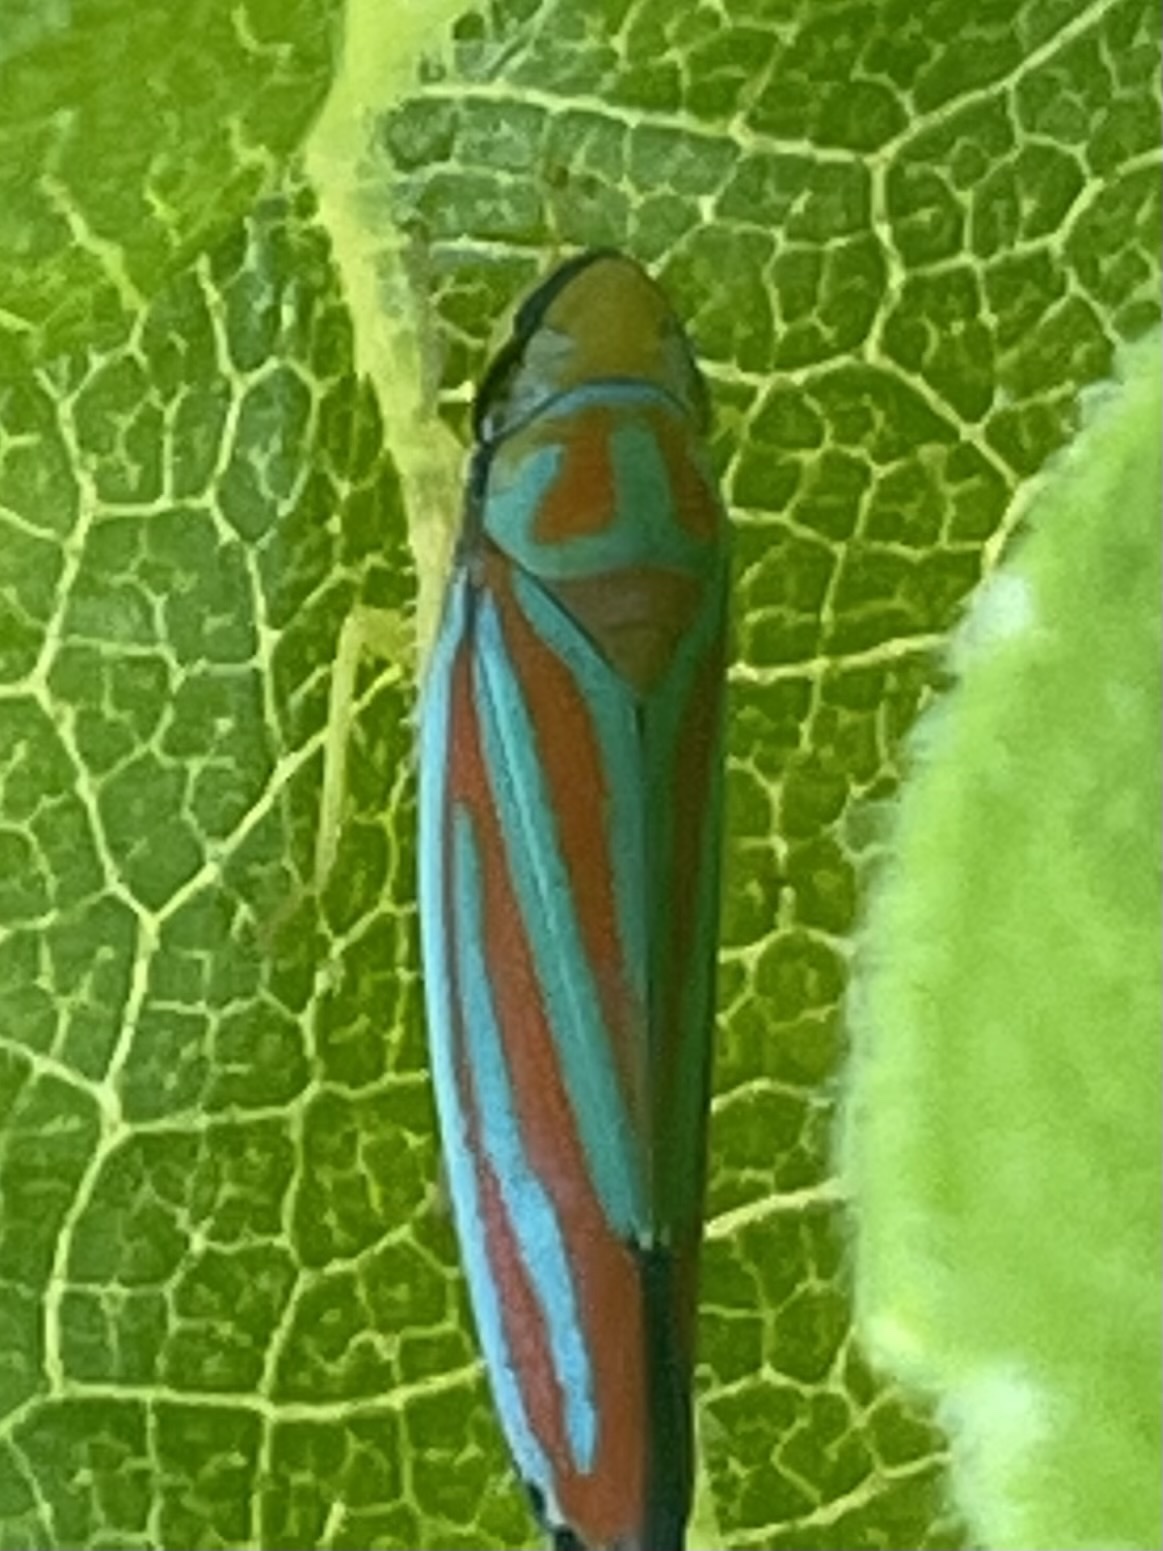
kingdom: Animalia
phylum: Arthropoda
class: Insecta
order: Hemiptera
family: Cicadellidae
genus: Graphocephala
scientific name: Graphocephala coccinea
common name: Candy-striped leafhopper
